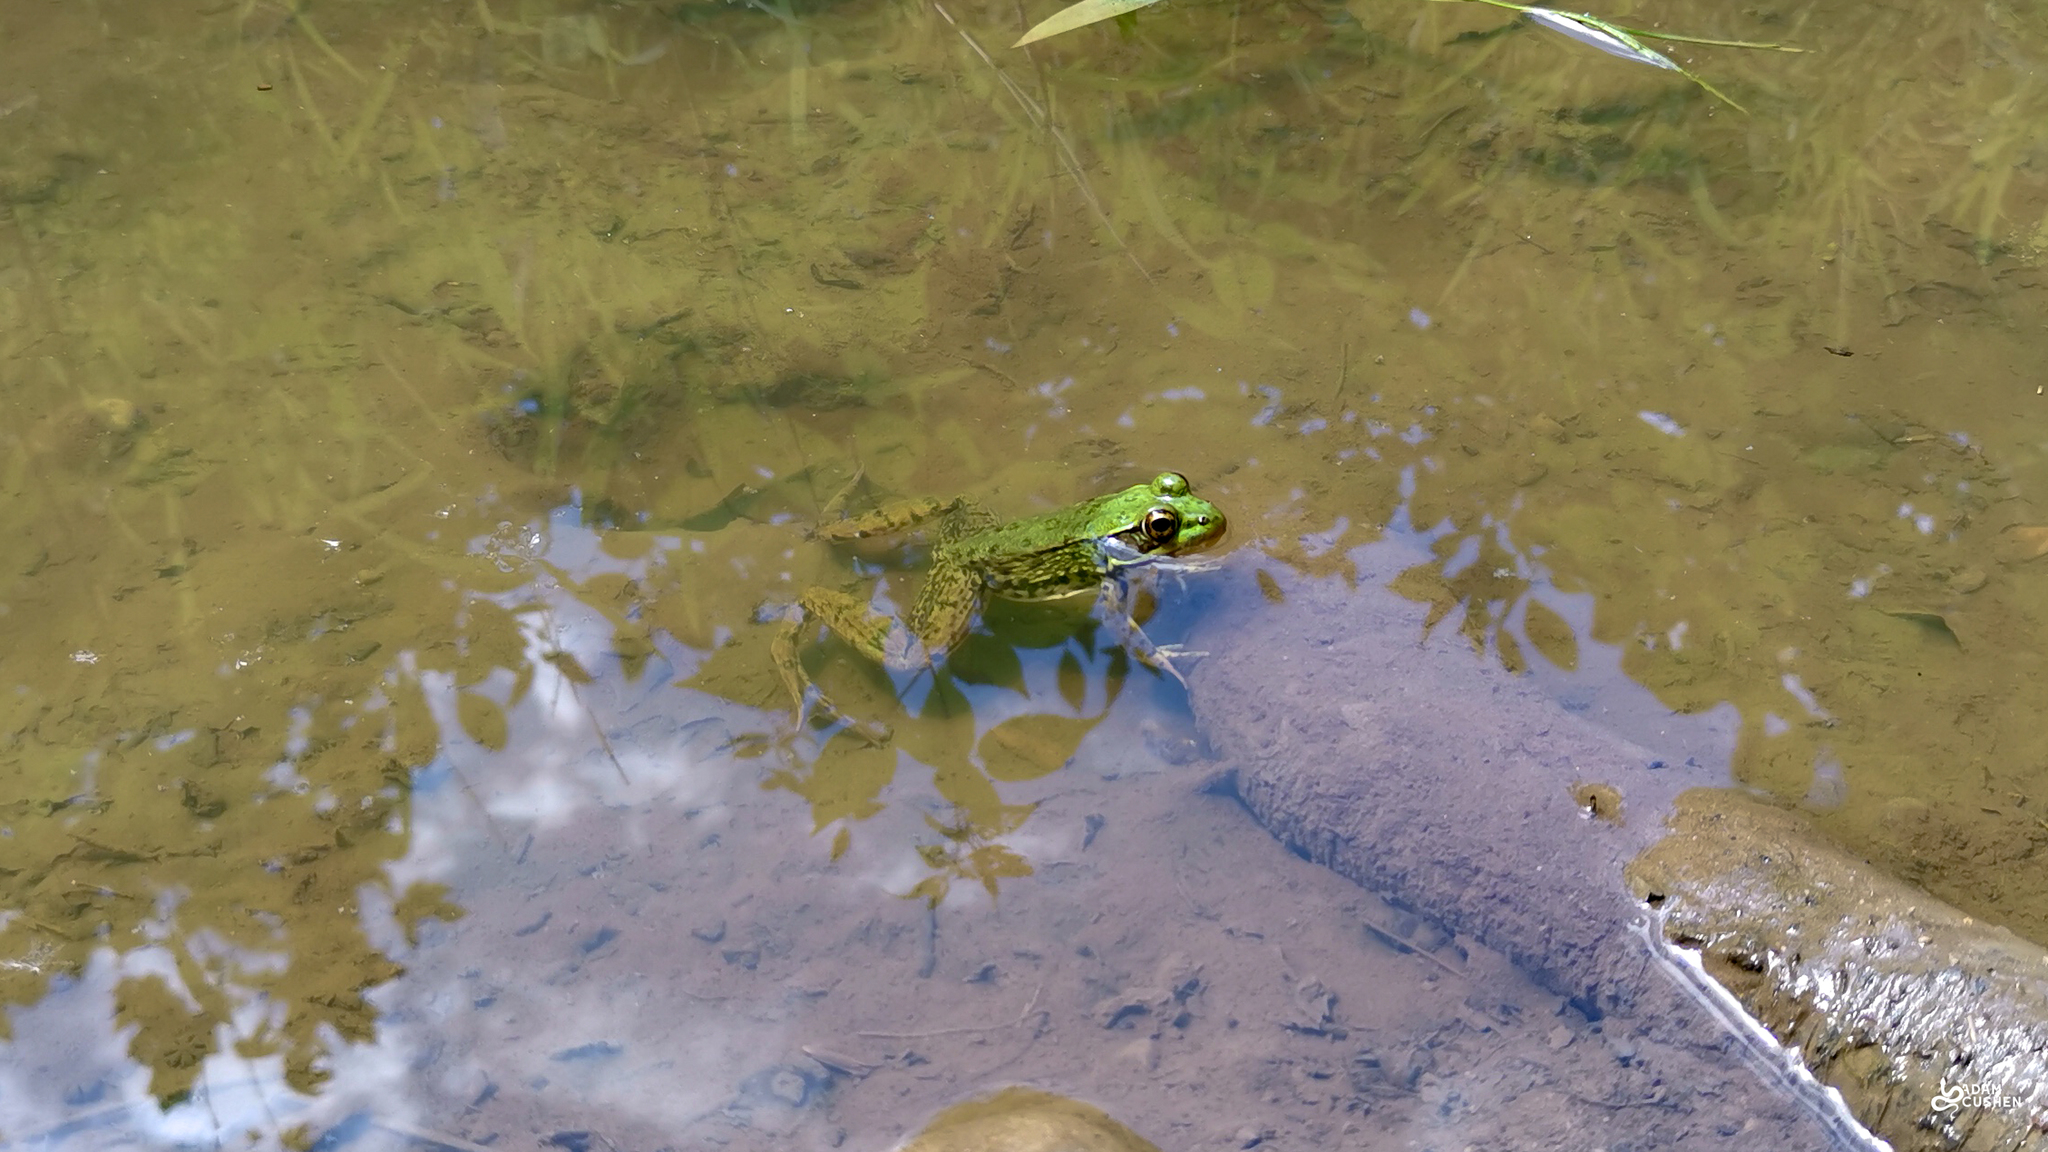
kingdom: Animalia
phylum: Chordata
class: Amphibia
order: Anura
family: Ranidae
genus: Lithobates
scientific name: Lithobates clamitans
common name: Green frog
